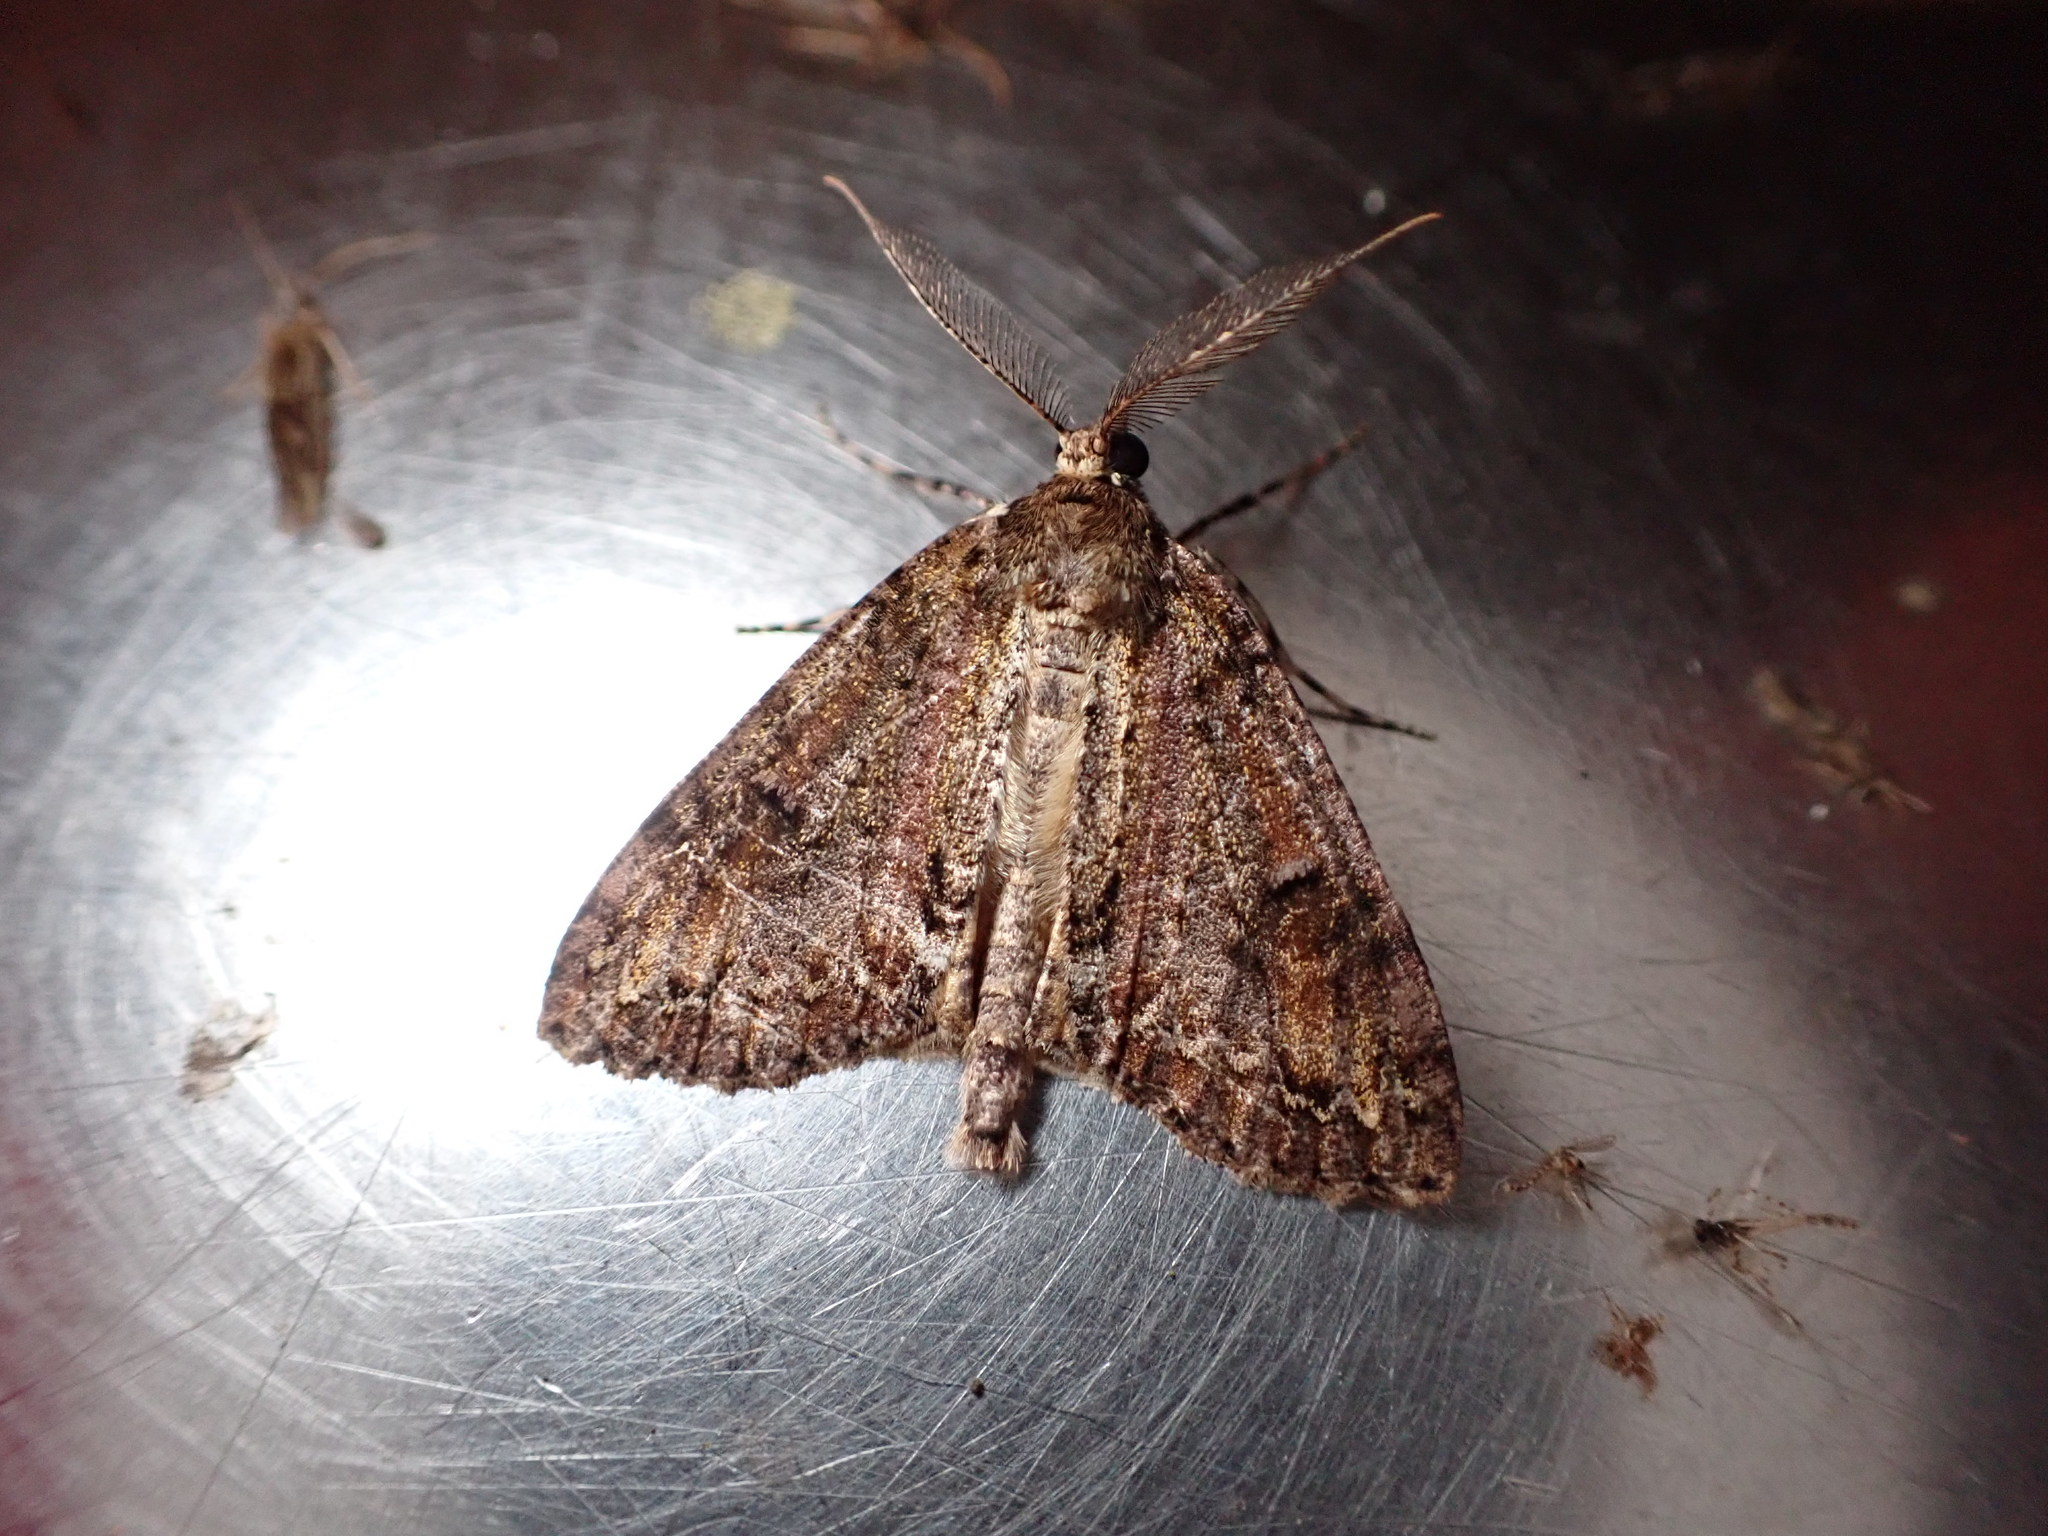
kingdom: Animalia
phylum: Arthropoda
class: Insecta
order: Lepidoptera
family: Geometridae
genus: Pseudocoremia
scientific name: Pseudocoremia suavis
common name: Common forest looper
